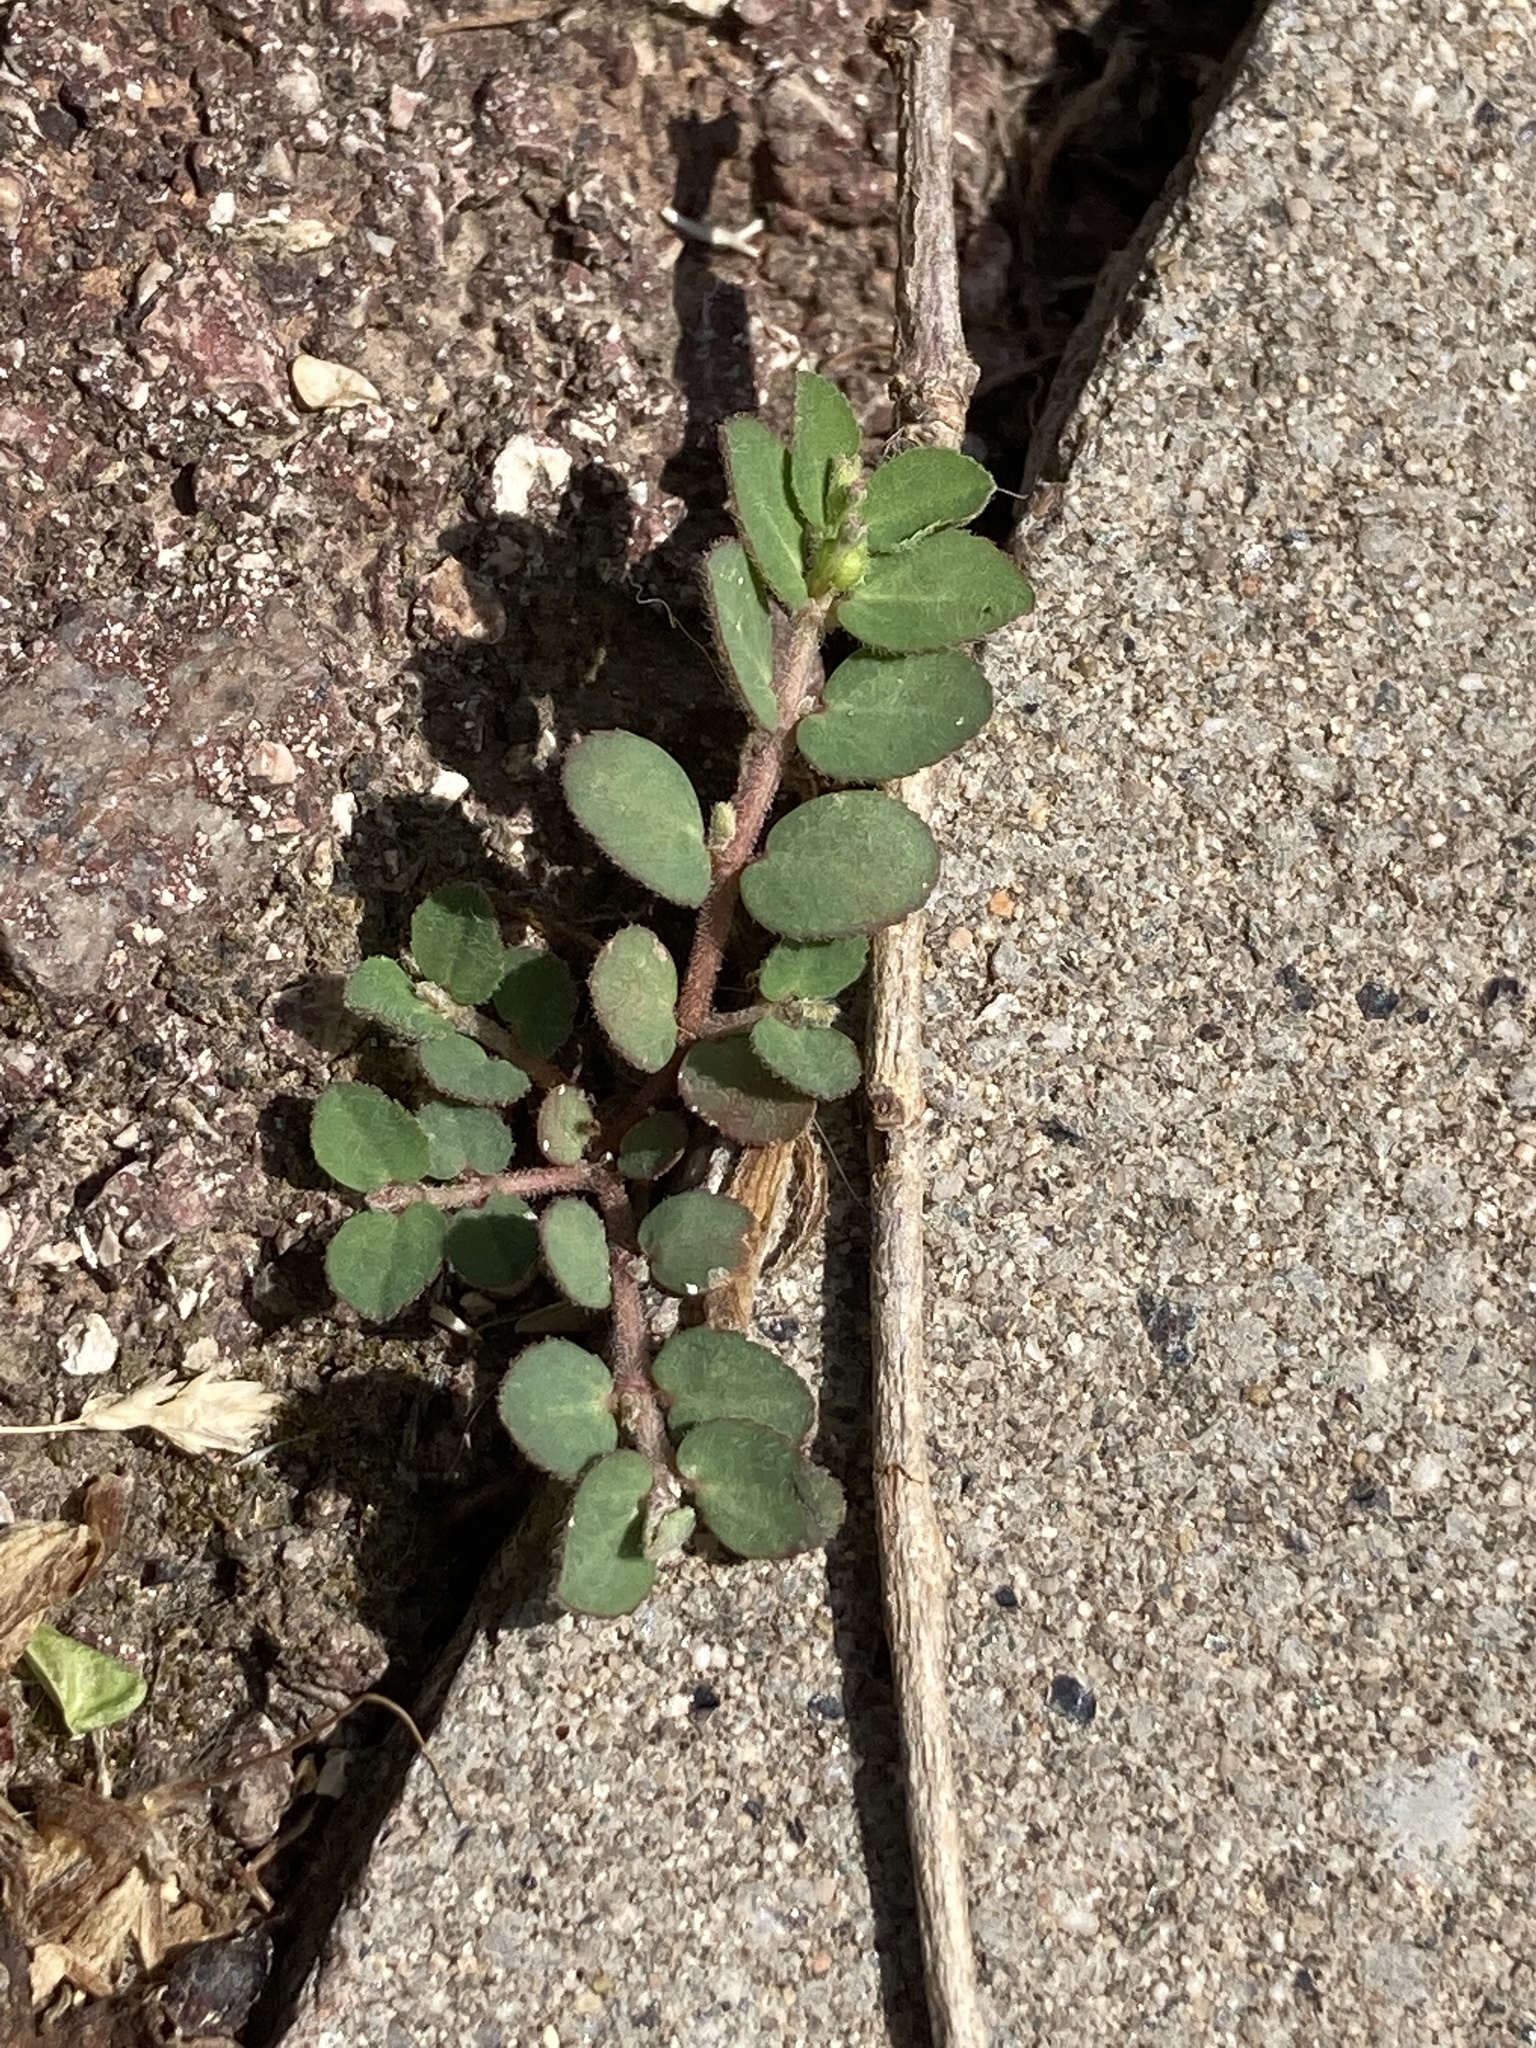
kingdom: Plantae
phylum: Tracheophyta
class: Magnoliopsida
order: Malpighiales
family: Euphorbiaceae
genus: Euphorbia
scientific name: Euphorbia prostrata
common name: Prostrate sandmat
